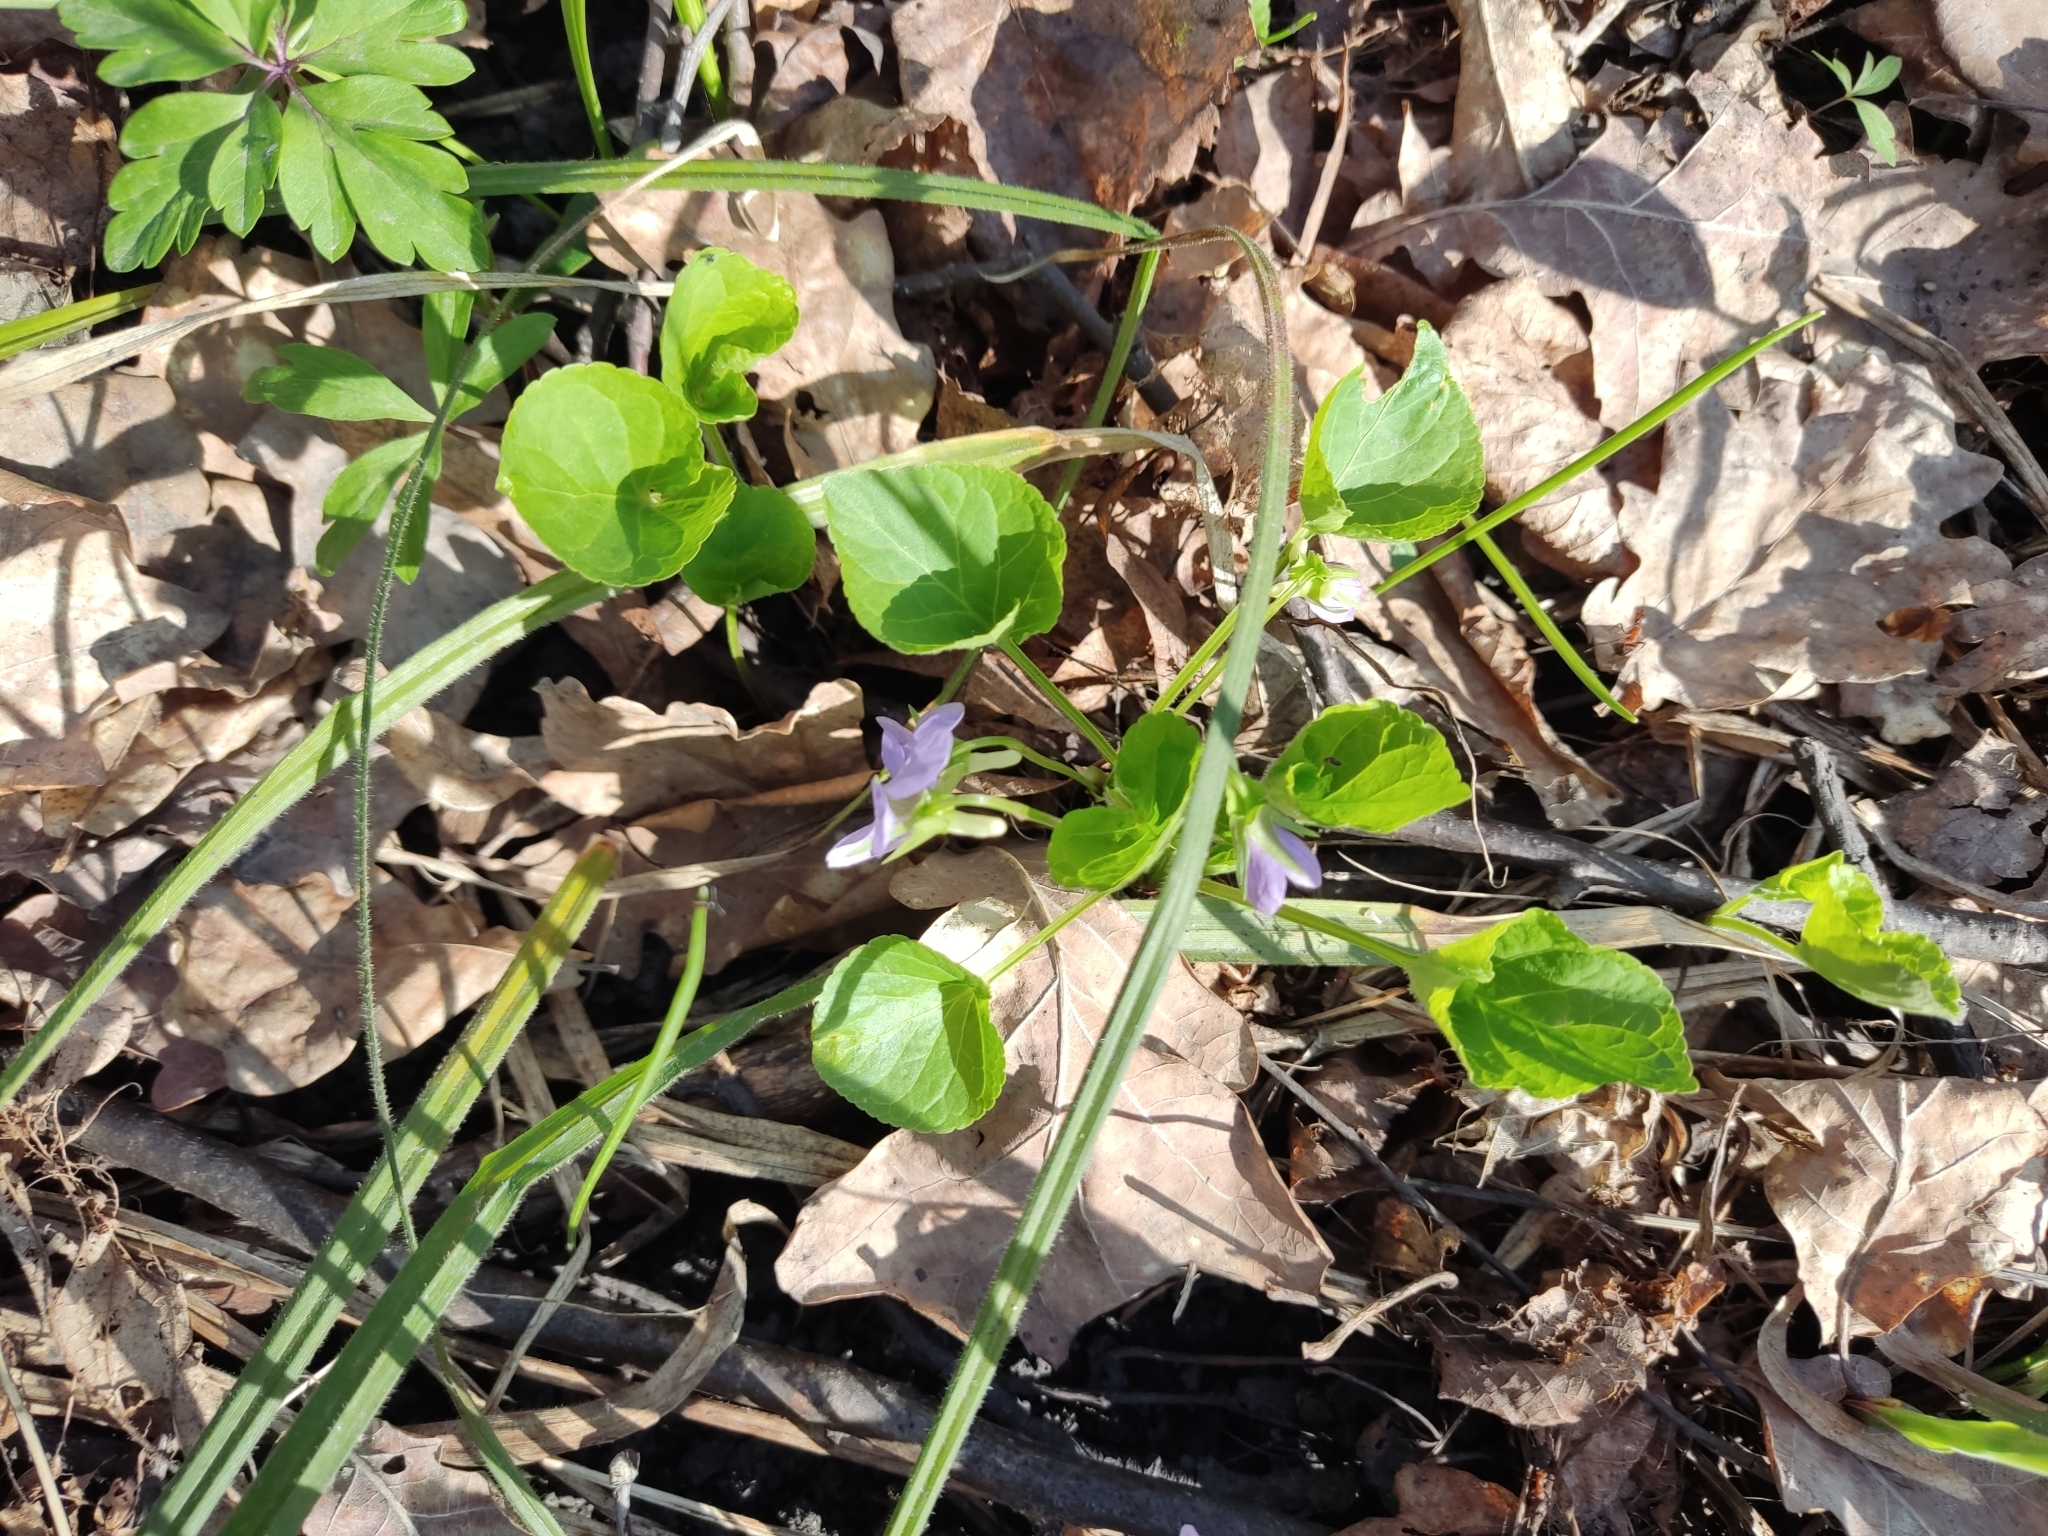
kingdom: Plantae
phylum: Tracheophyta
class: Magnoliopsida
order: Malpighiales
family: Violaceae
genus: Viola
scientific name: Viola mirabilis
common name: Wonder violet
